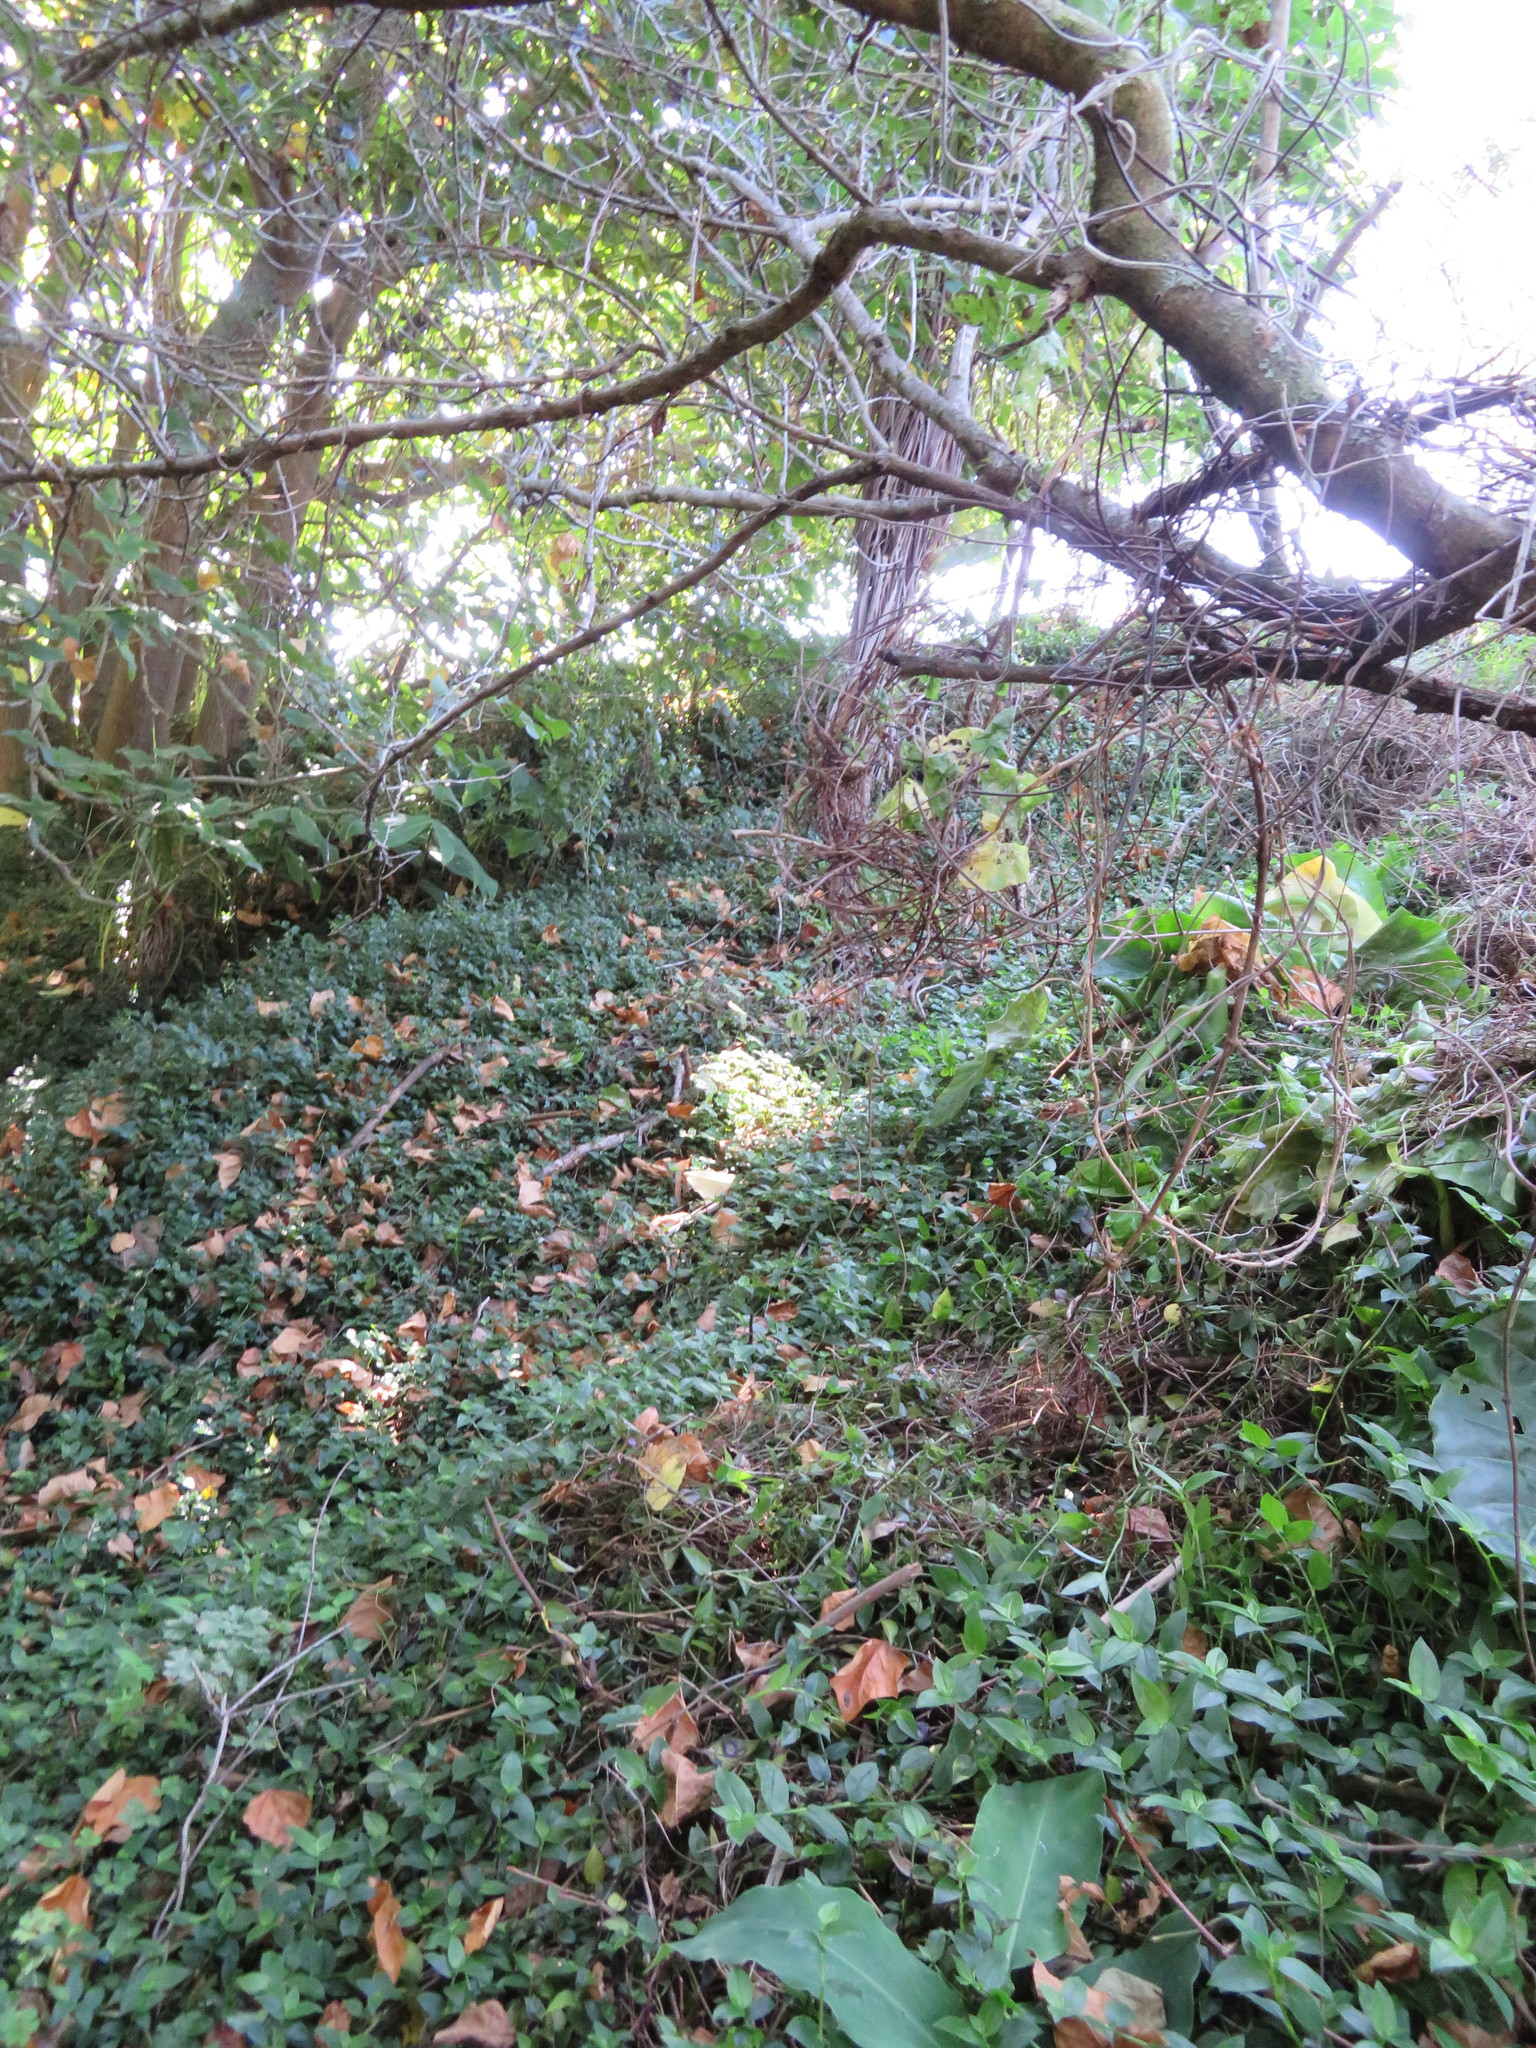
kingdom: Plantae
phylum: Tracheophyta
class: Liliopsida
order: Commelinales
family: Commelinaceae
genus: Tradescantia
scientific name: Tradescantia fluminensis
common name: Wandering-jew
